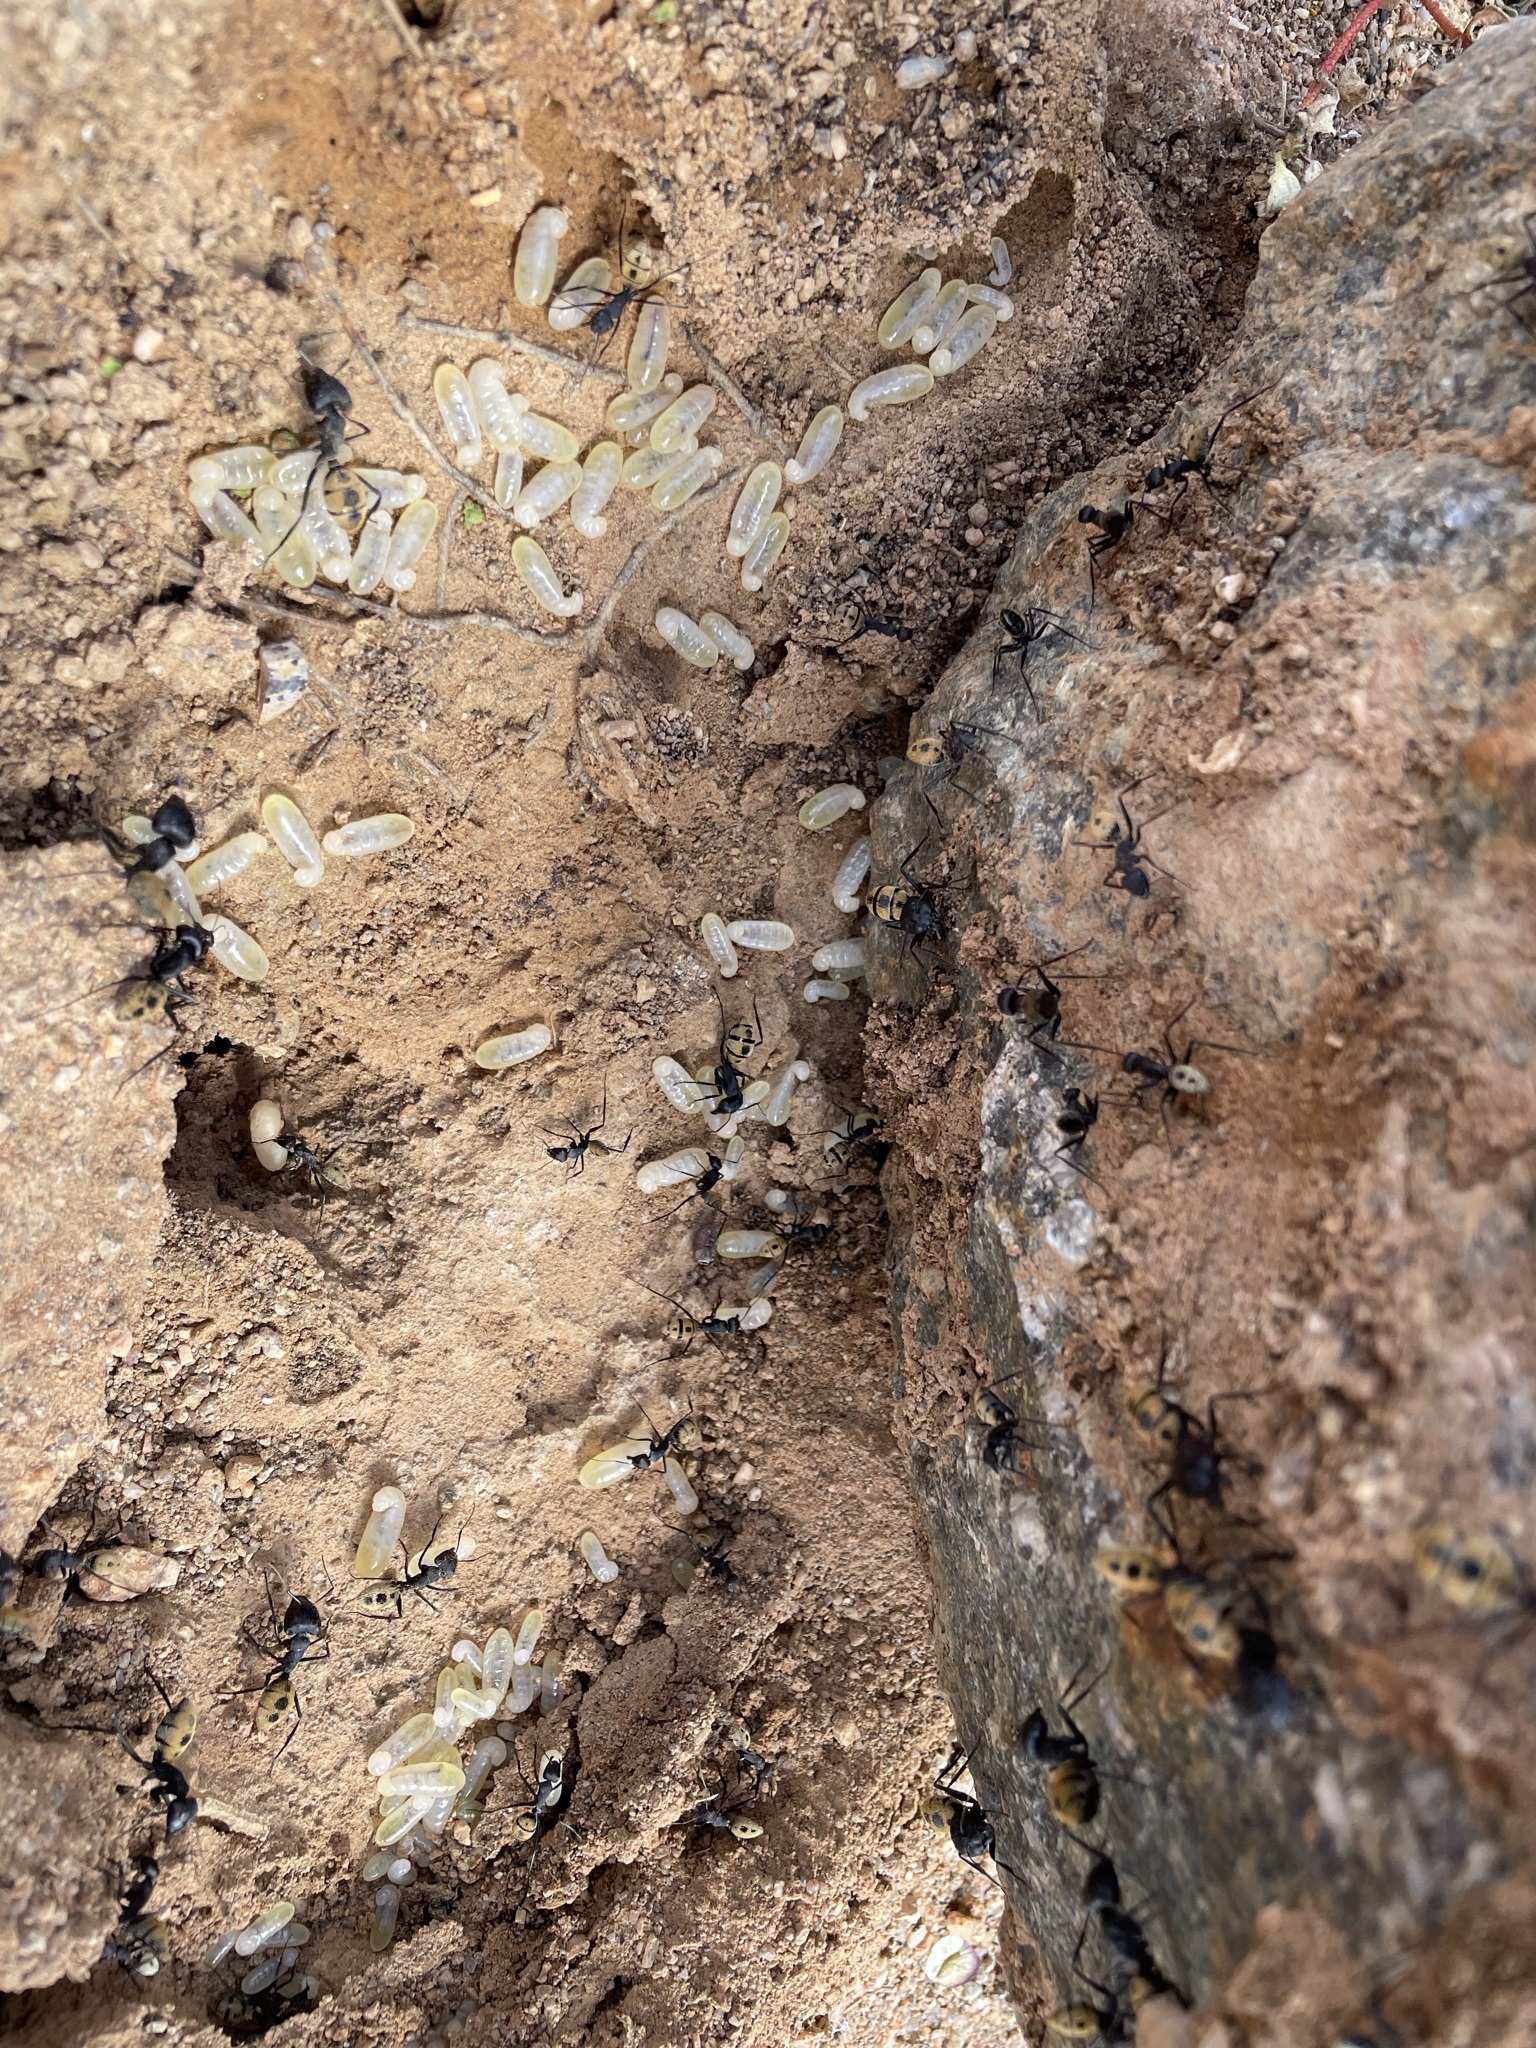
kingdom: Animalia
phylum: Arthropoda
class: Insecta
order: Hymenoptera
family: Formicidae
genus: Camponotus
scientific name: Camponotus fulvopilosus
